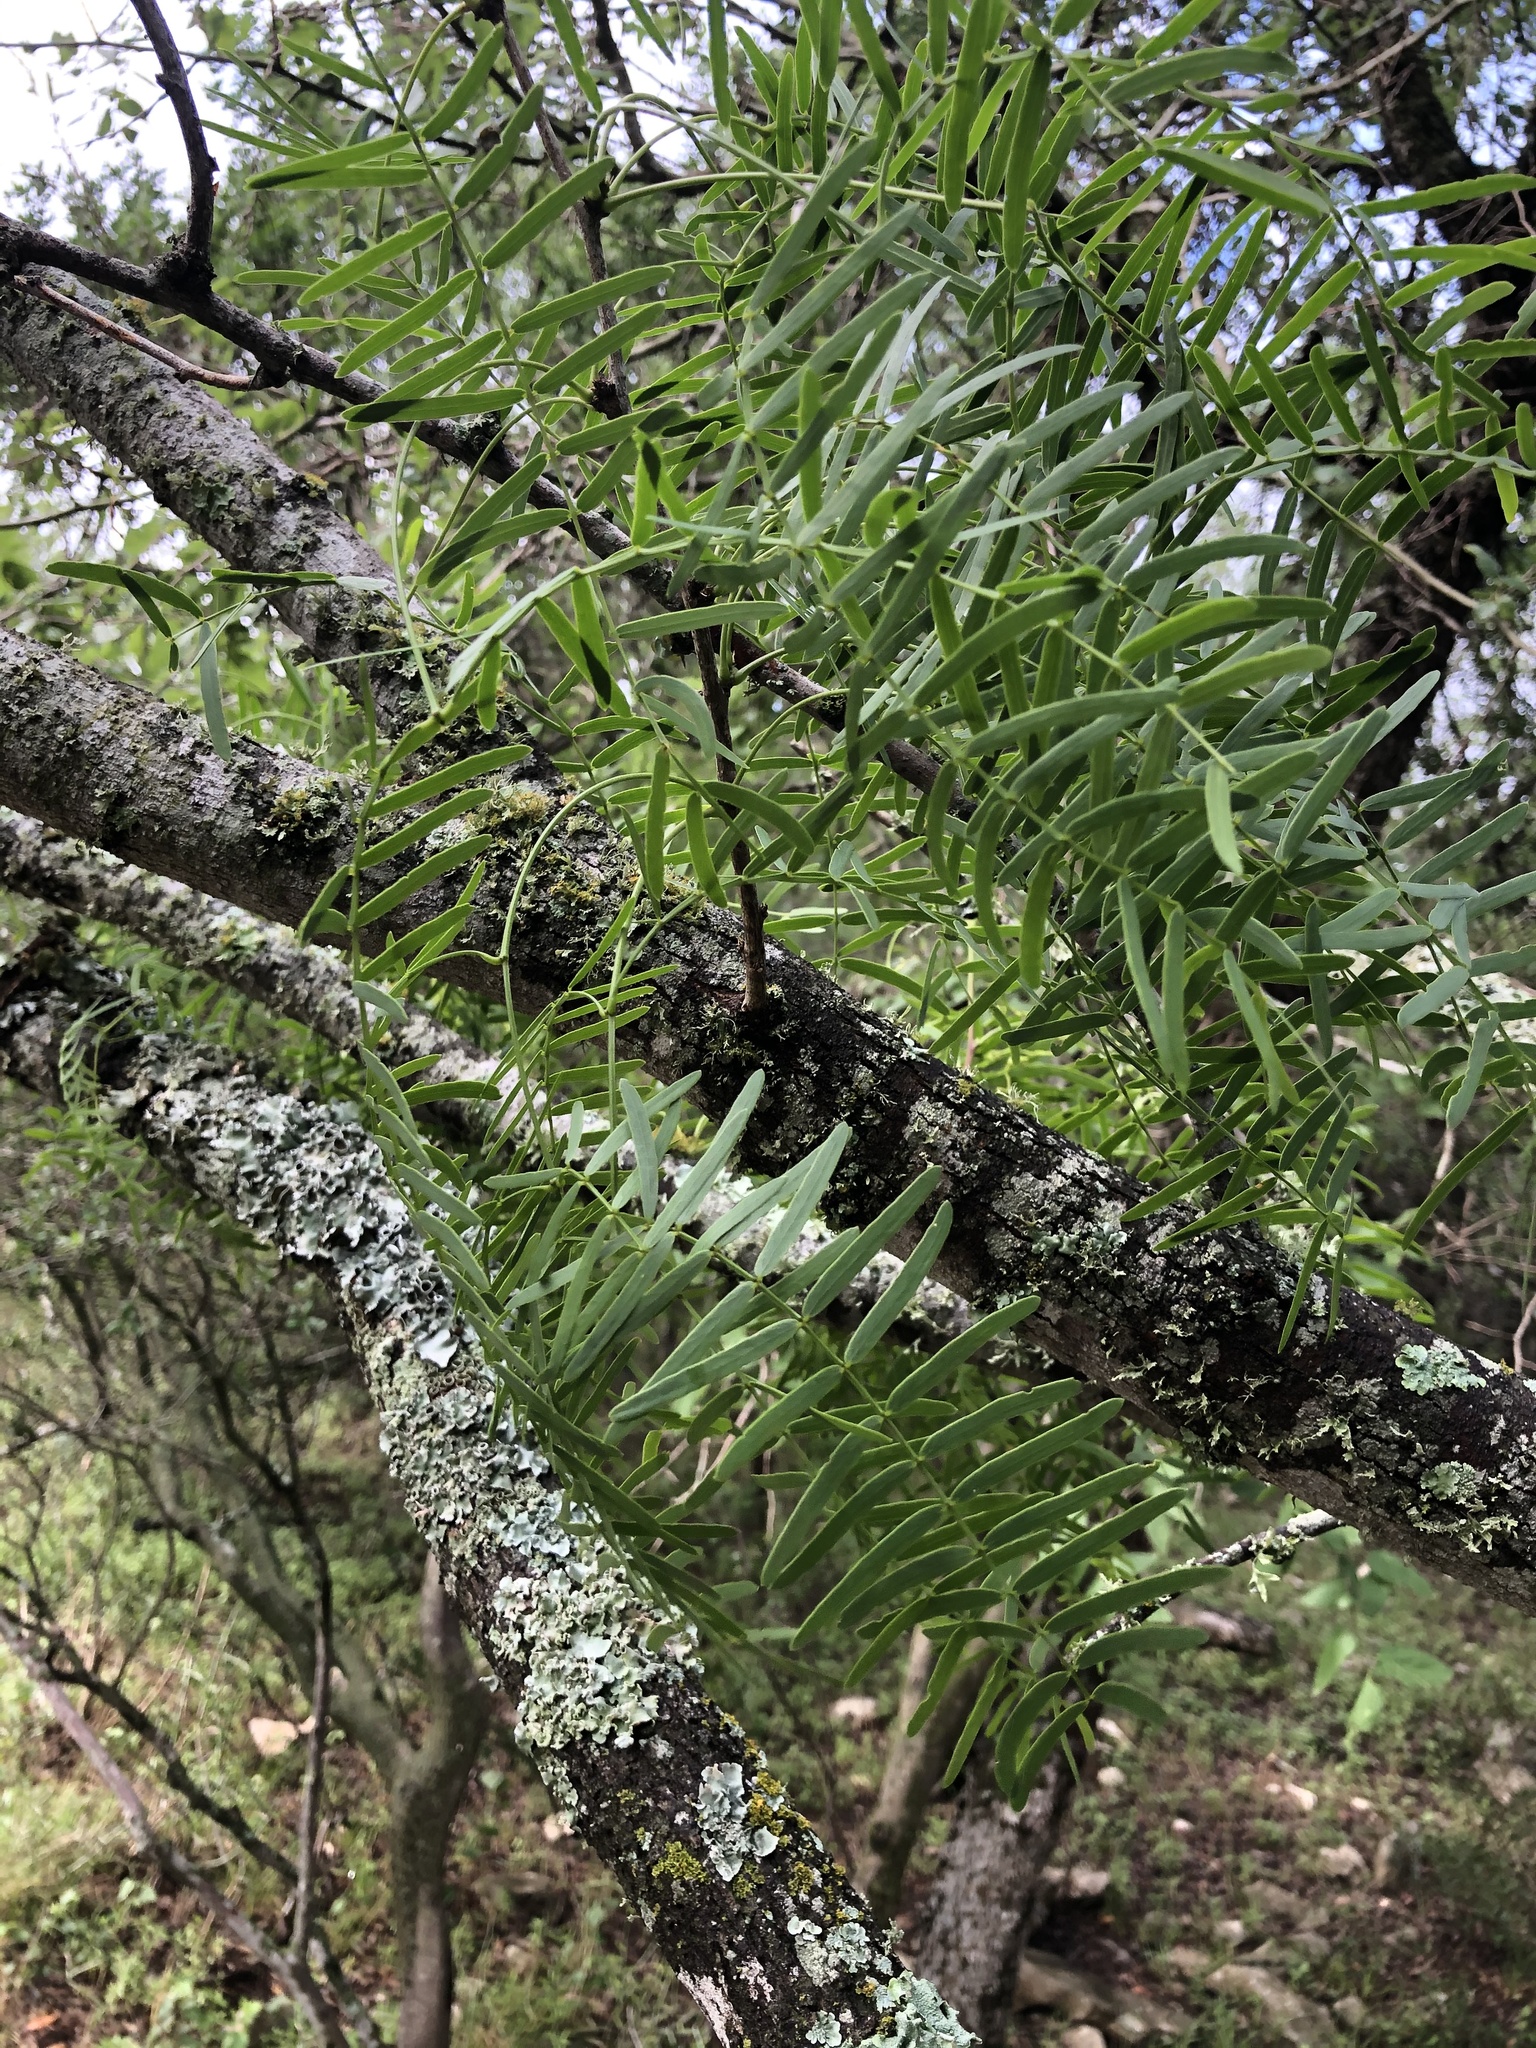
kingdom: Plantae
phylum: Tracheophyta
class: Magnoliopsida
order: Fabales
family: Fabaceae
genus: Prosopis
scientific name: Prosopis glandulosa
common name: Honey mesquite
